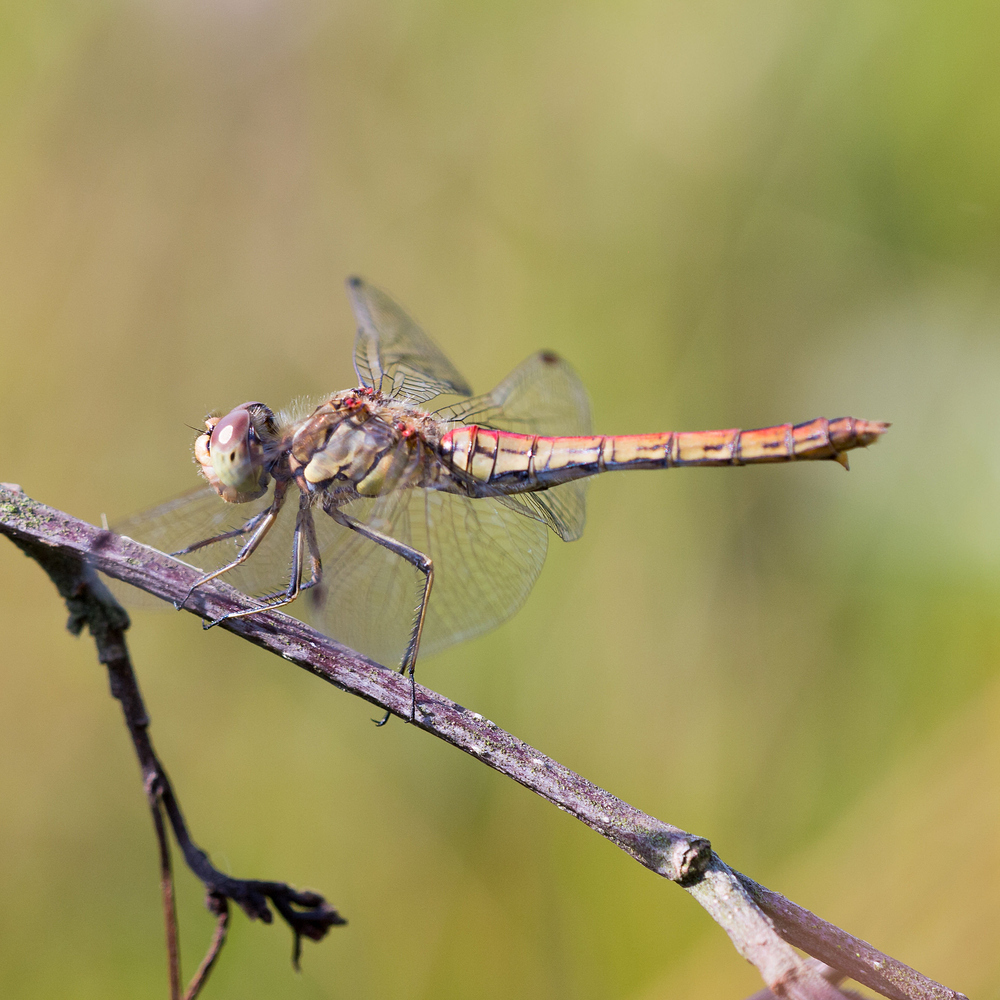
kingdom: Animalia
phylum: Arthropoda
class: Insecta
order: Odonata
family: Libellulidae
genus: Sympetrum
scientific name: Sympetrum vulgatum
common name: Vagrant darter
